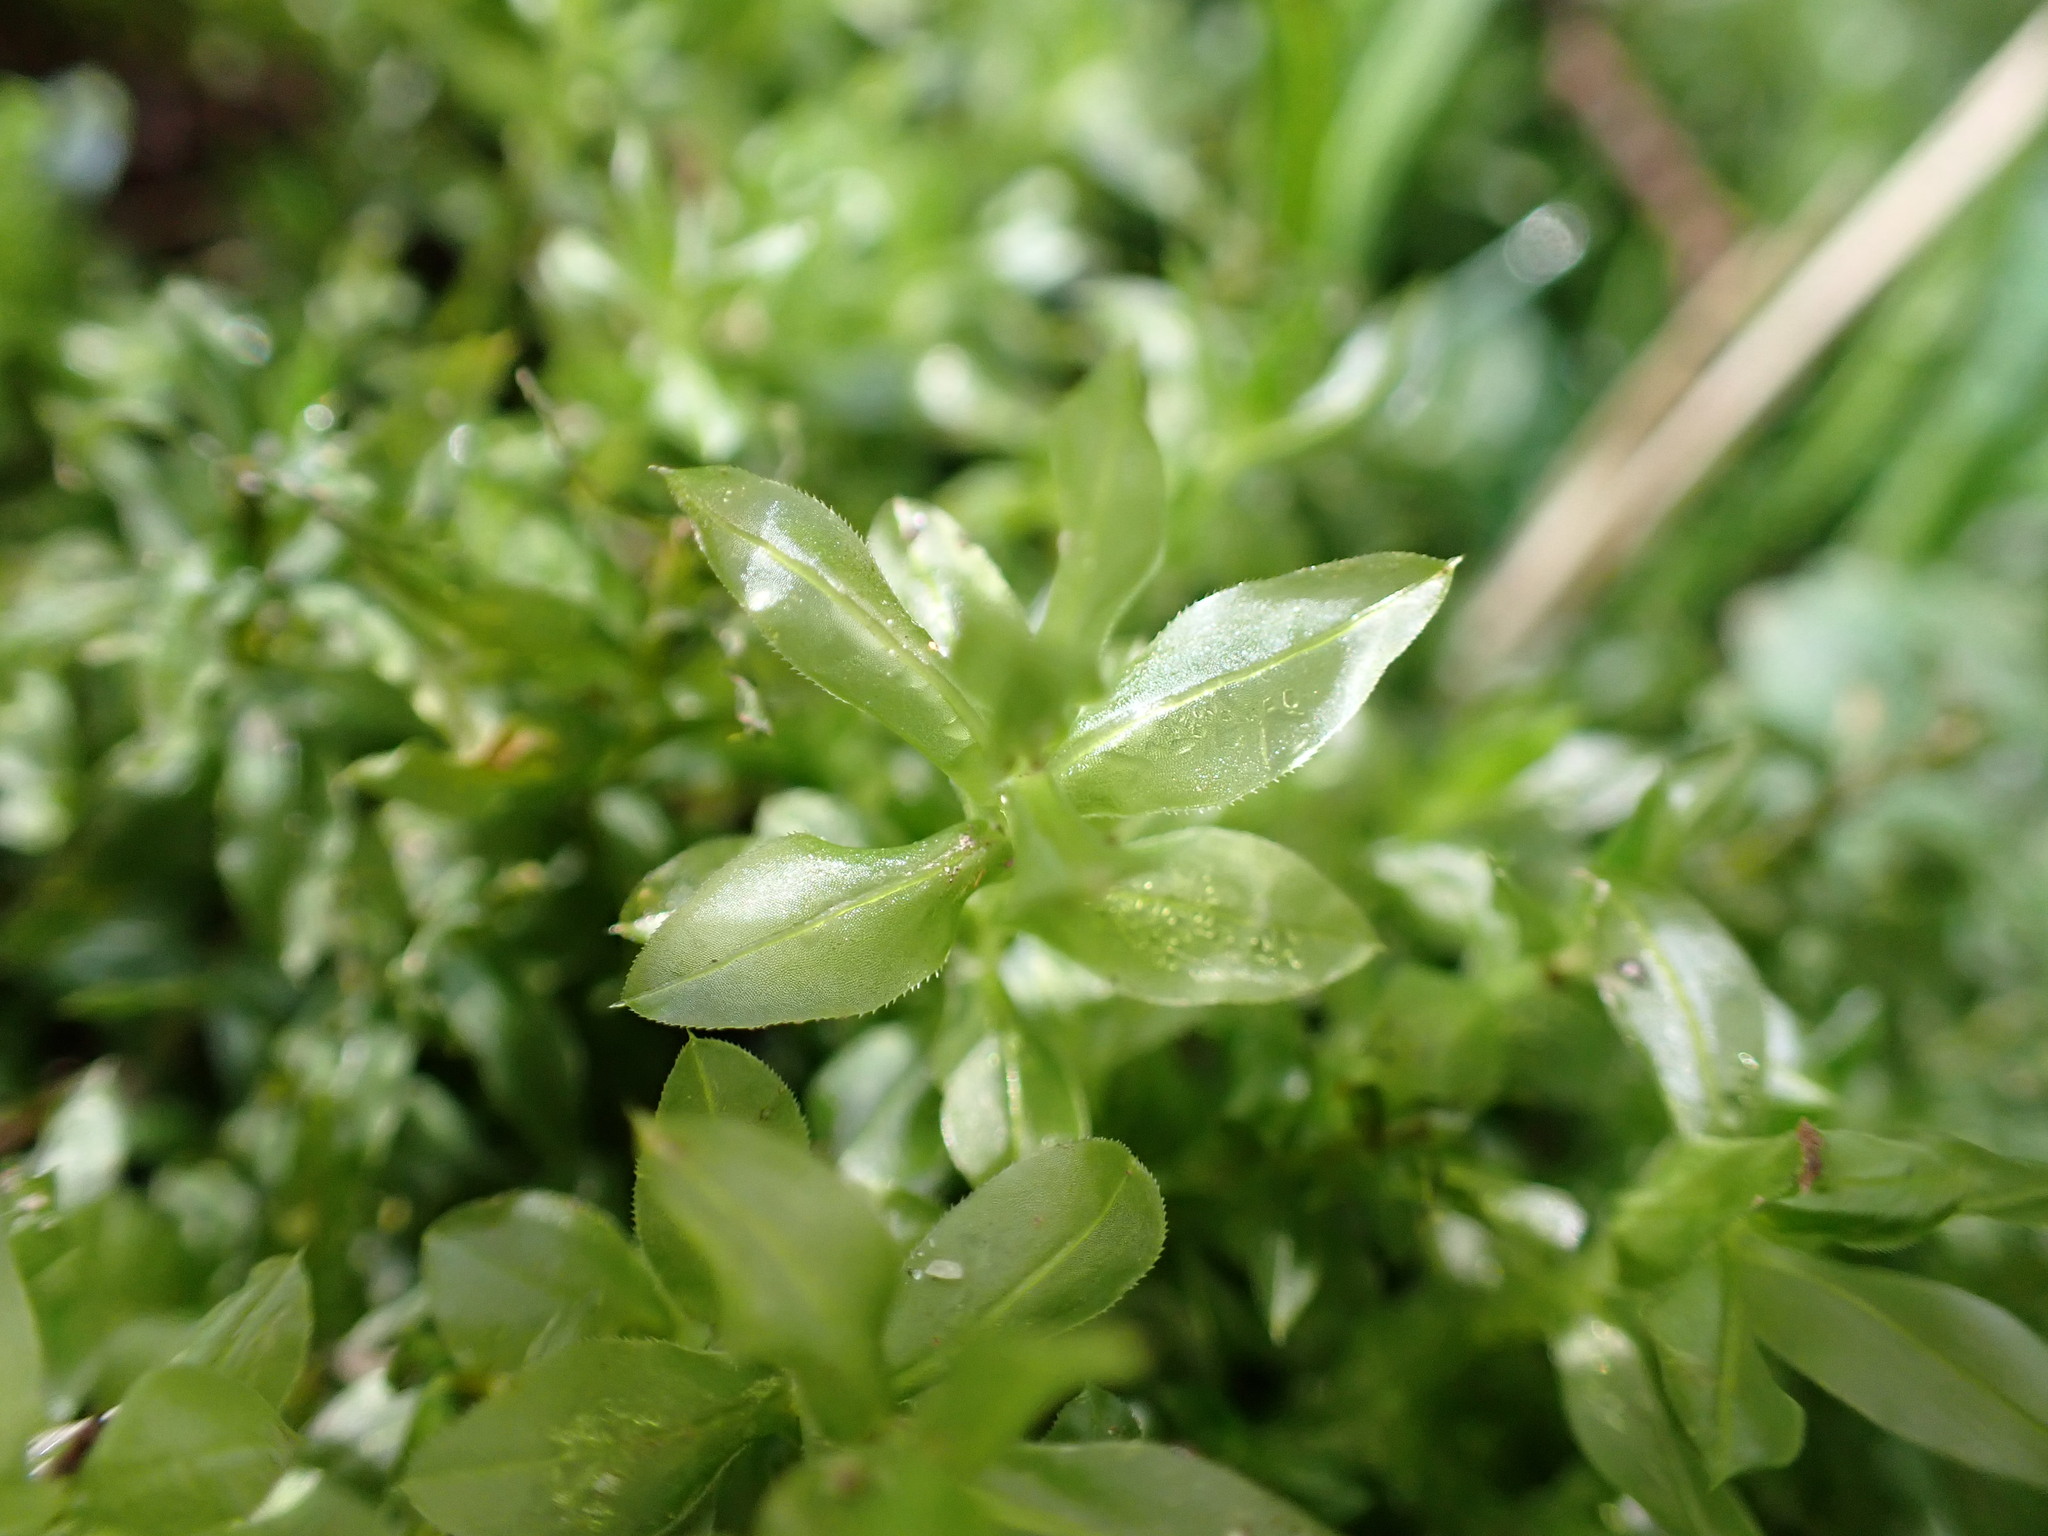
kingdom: Plantae
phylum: Bryophyta
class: Bryopsida
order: Bryales
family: Mniaceae
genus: Plagiomnium
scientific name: Plagiomnium insigne
